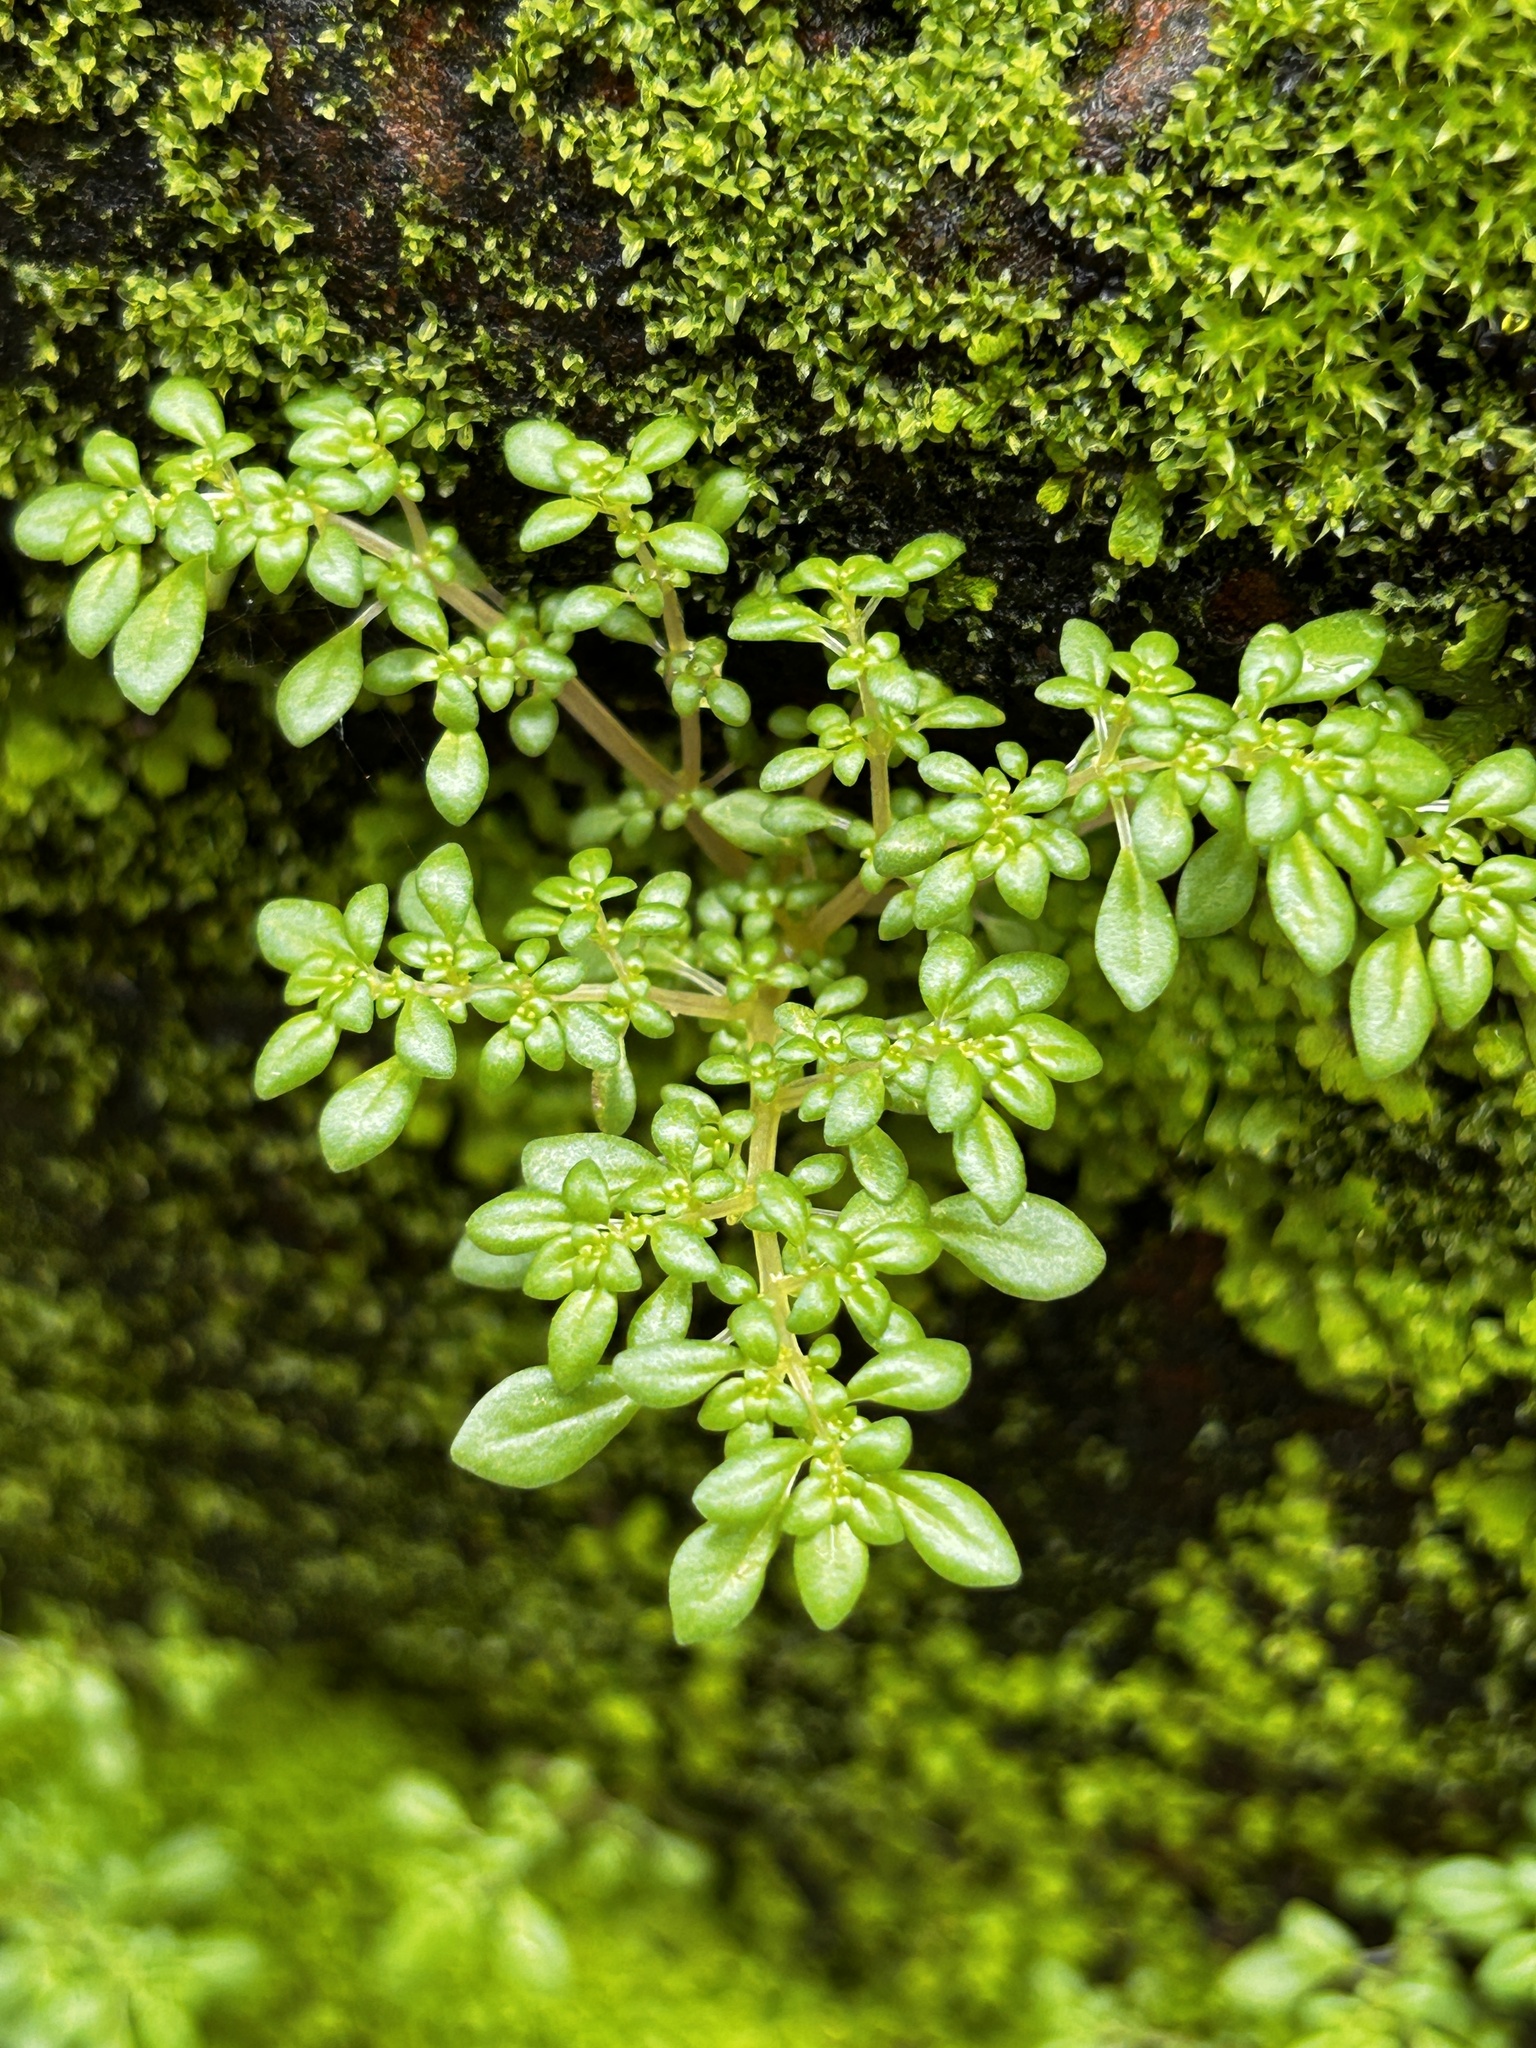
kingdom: Plantae
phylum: Tracheophyta
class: Magnoliopsida
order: Rosales
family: Urticaceae
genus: Pilea
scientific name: Pilea microphylla
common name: Artillery-plant
